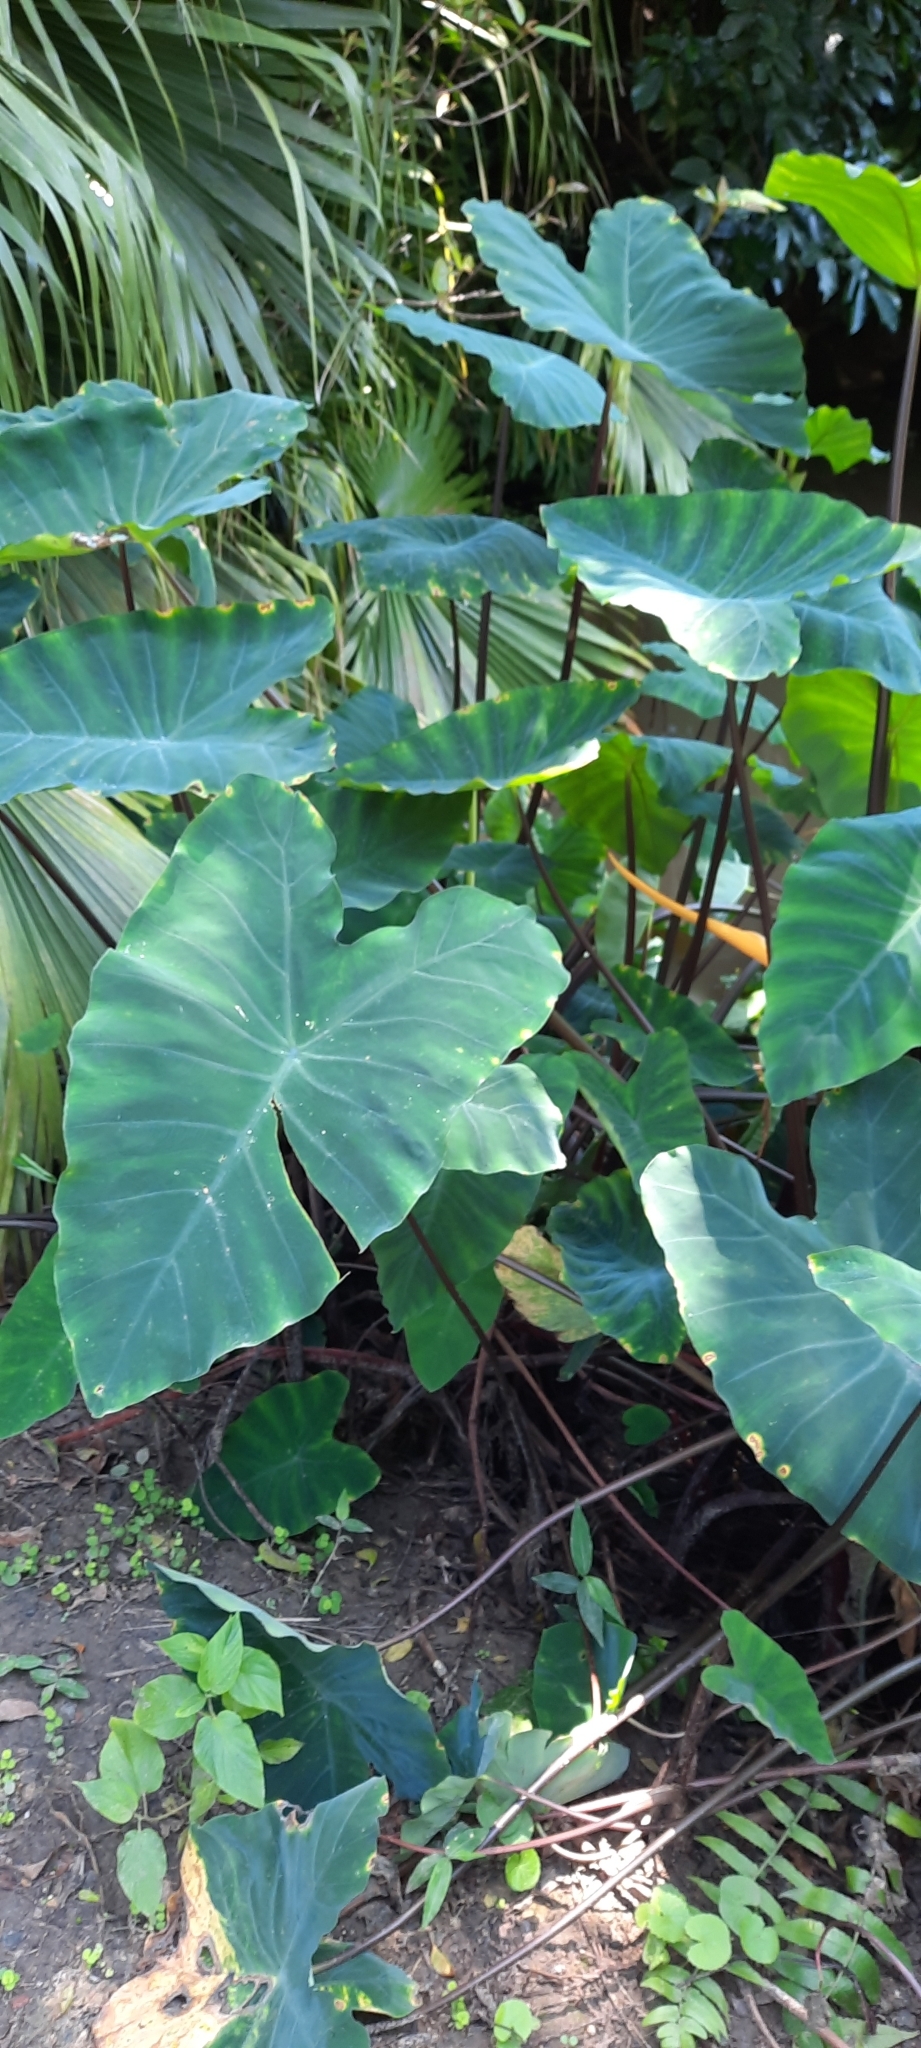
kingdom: Plantae
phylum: Tracheophyta
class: Liliopsida
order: Alismatales
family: Araceae
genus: Colocasia
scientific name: Colocasia esculenta
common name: Taro
